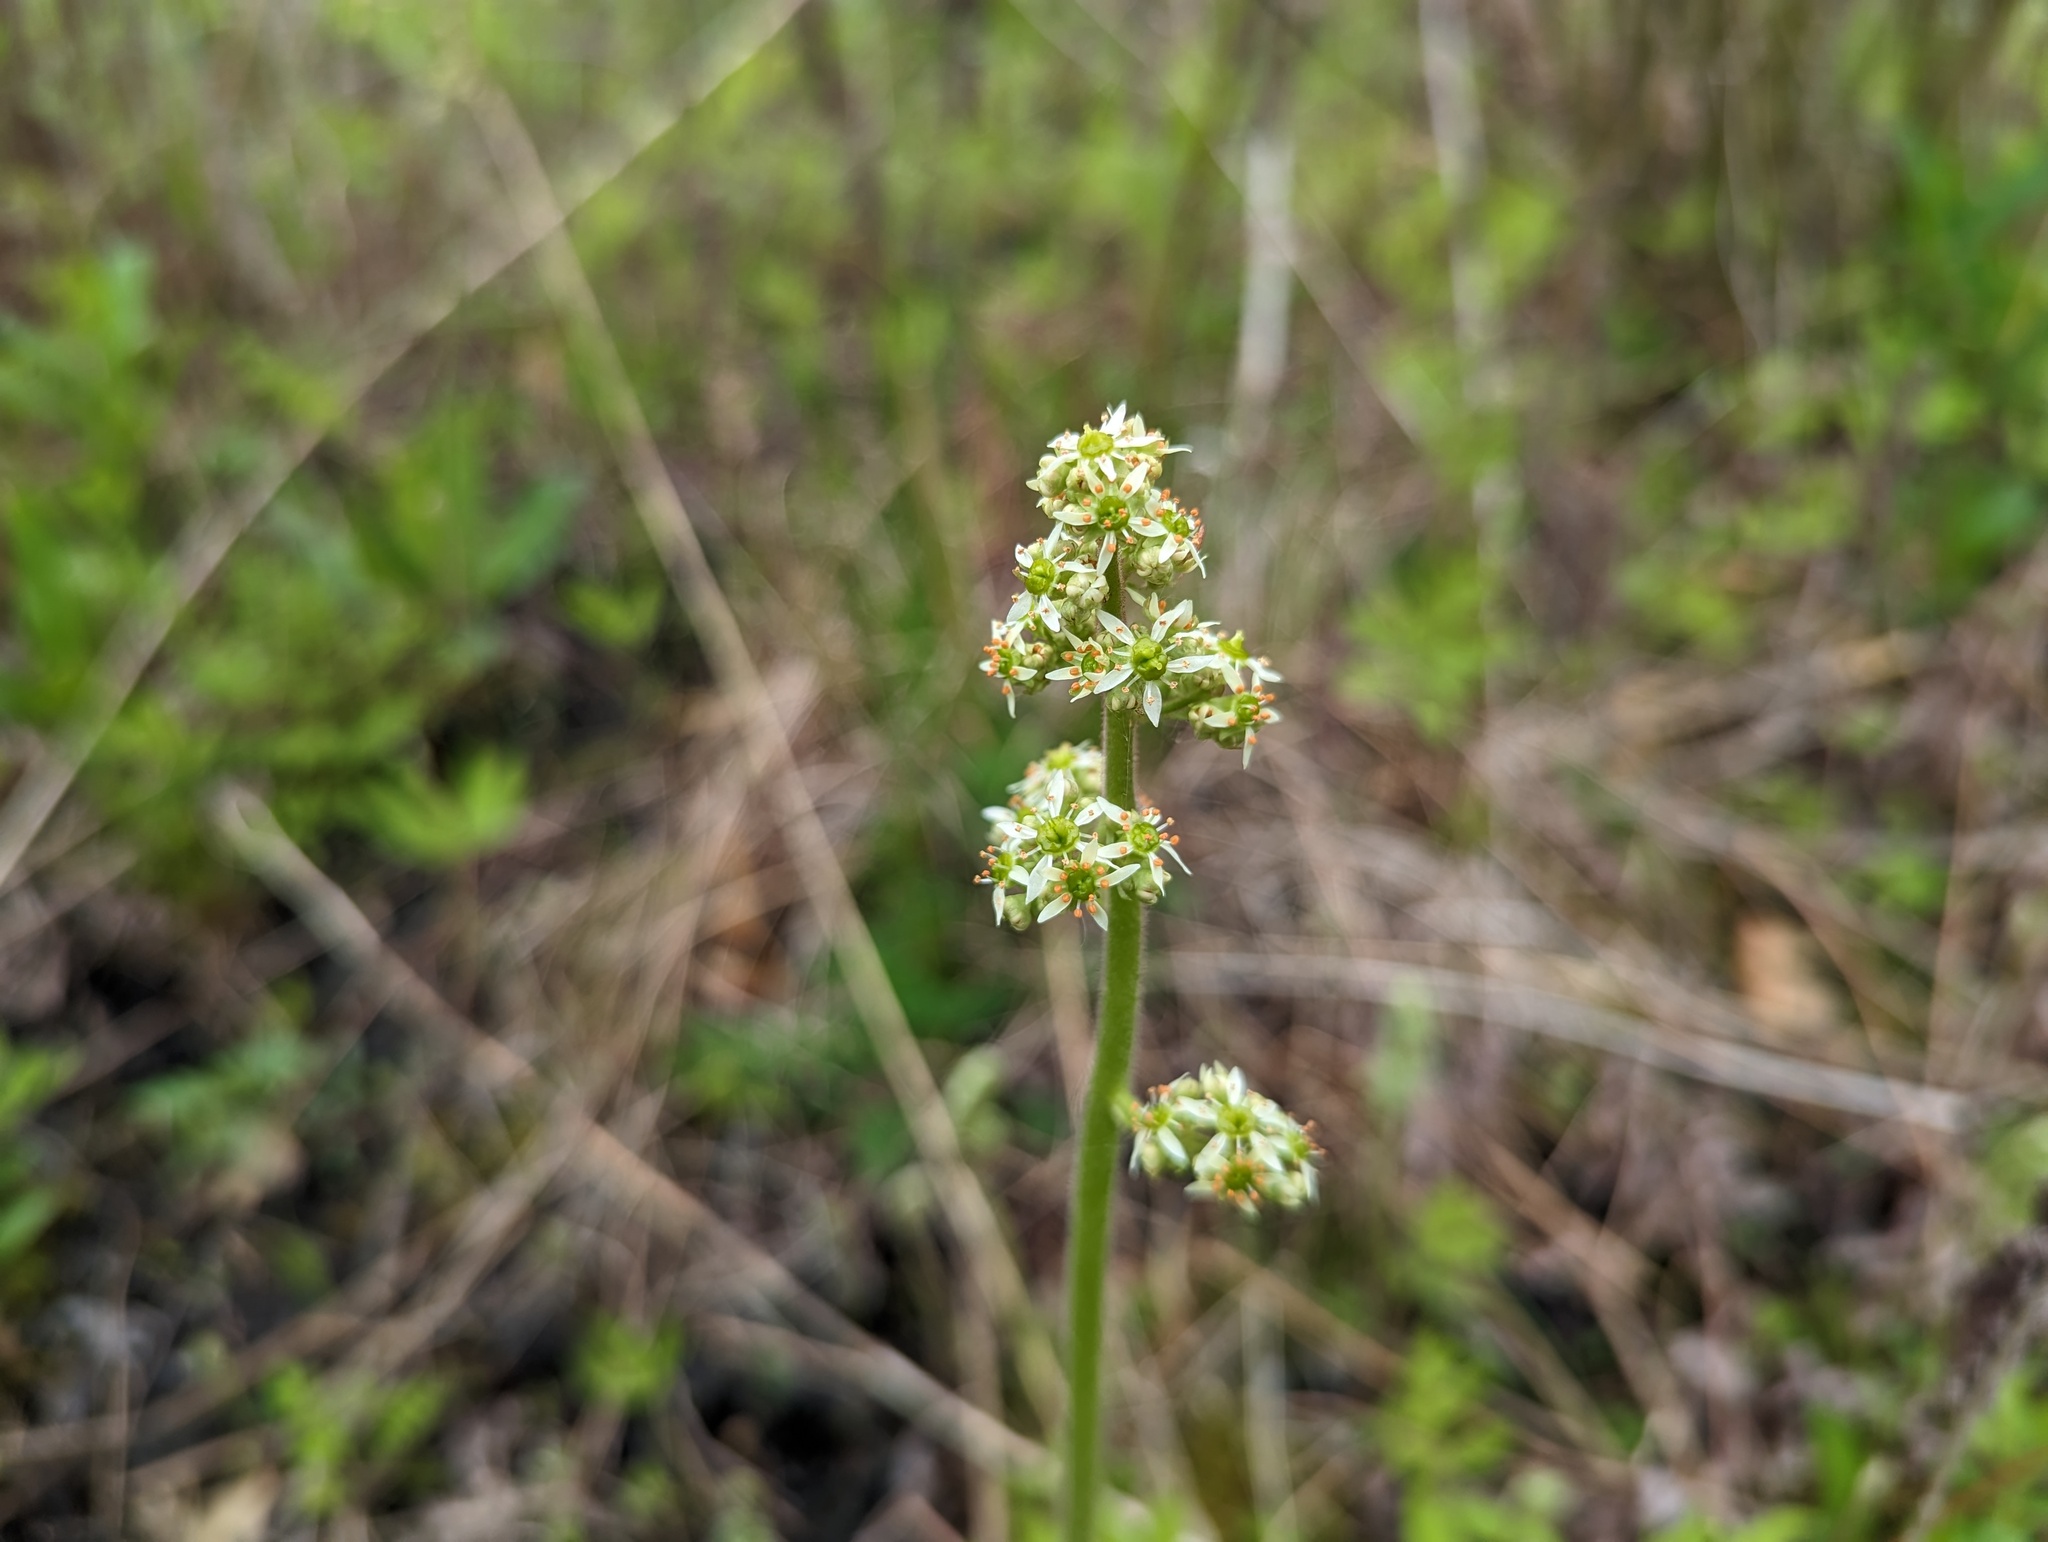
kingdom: Plantae
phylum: Tracheophyta
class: Magnoliopsida
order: Saxifragales
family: Saxifragaceae
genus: Micranthes
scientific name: Micranthes pensylvanica
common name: Marsh saxifrage
